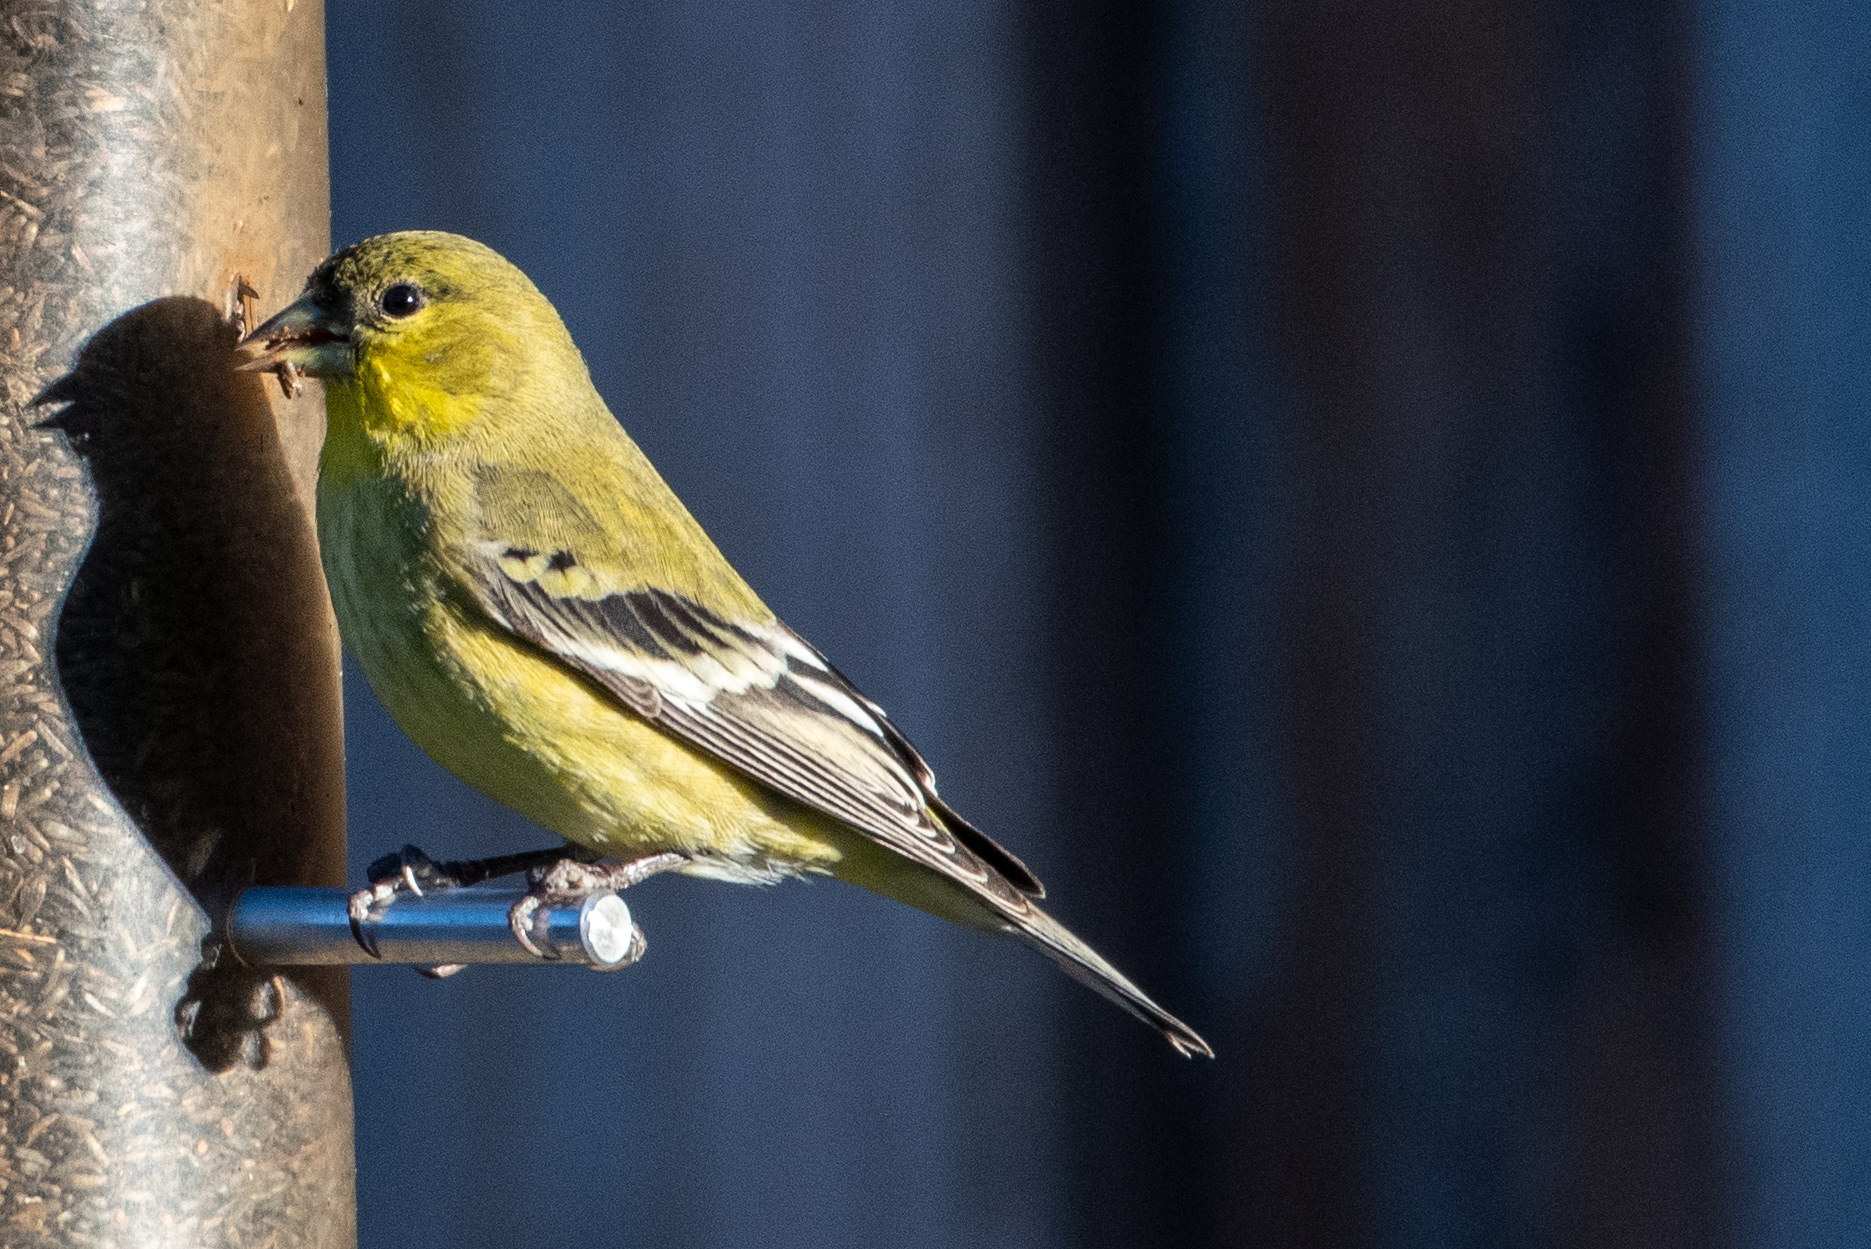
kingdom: Animalia
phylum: Chordata
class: Aves
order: Passeriformes
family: Fringillidae
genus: Spinus
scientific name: Spinus psaltria
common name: Lesser goldfinch
